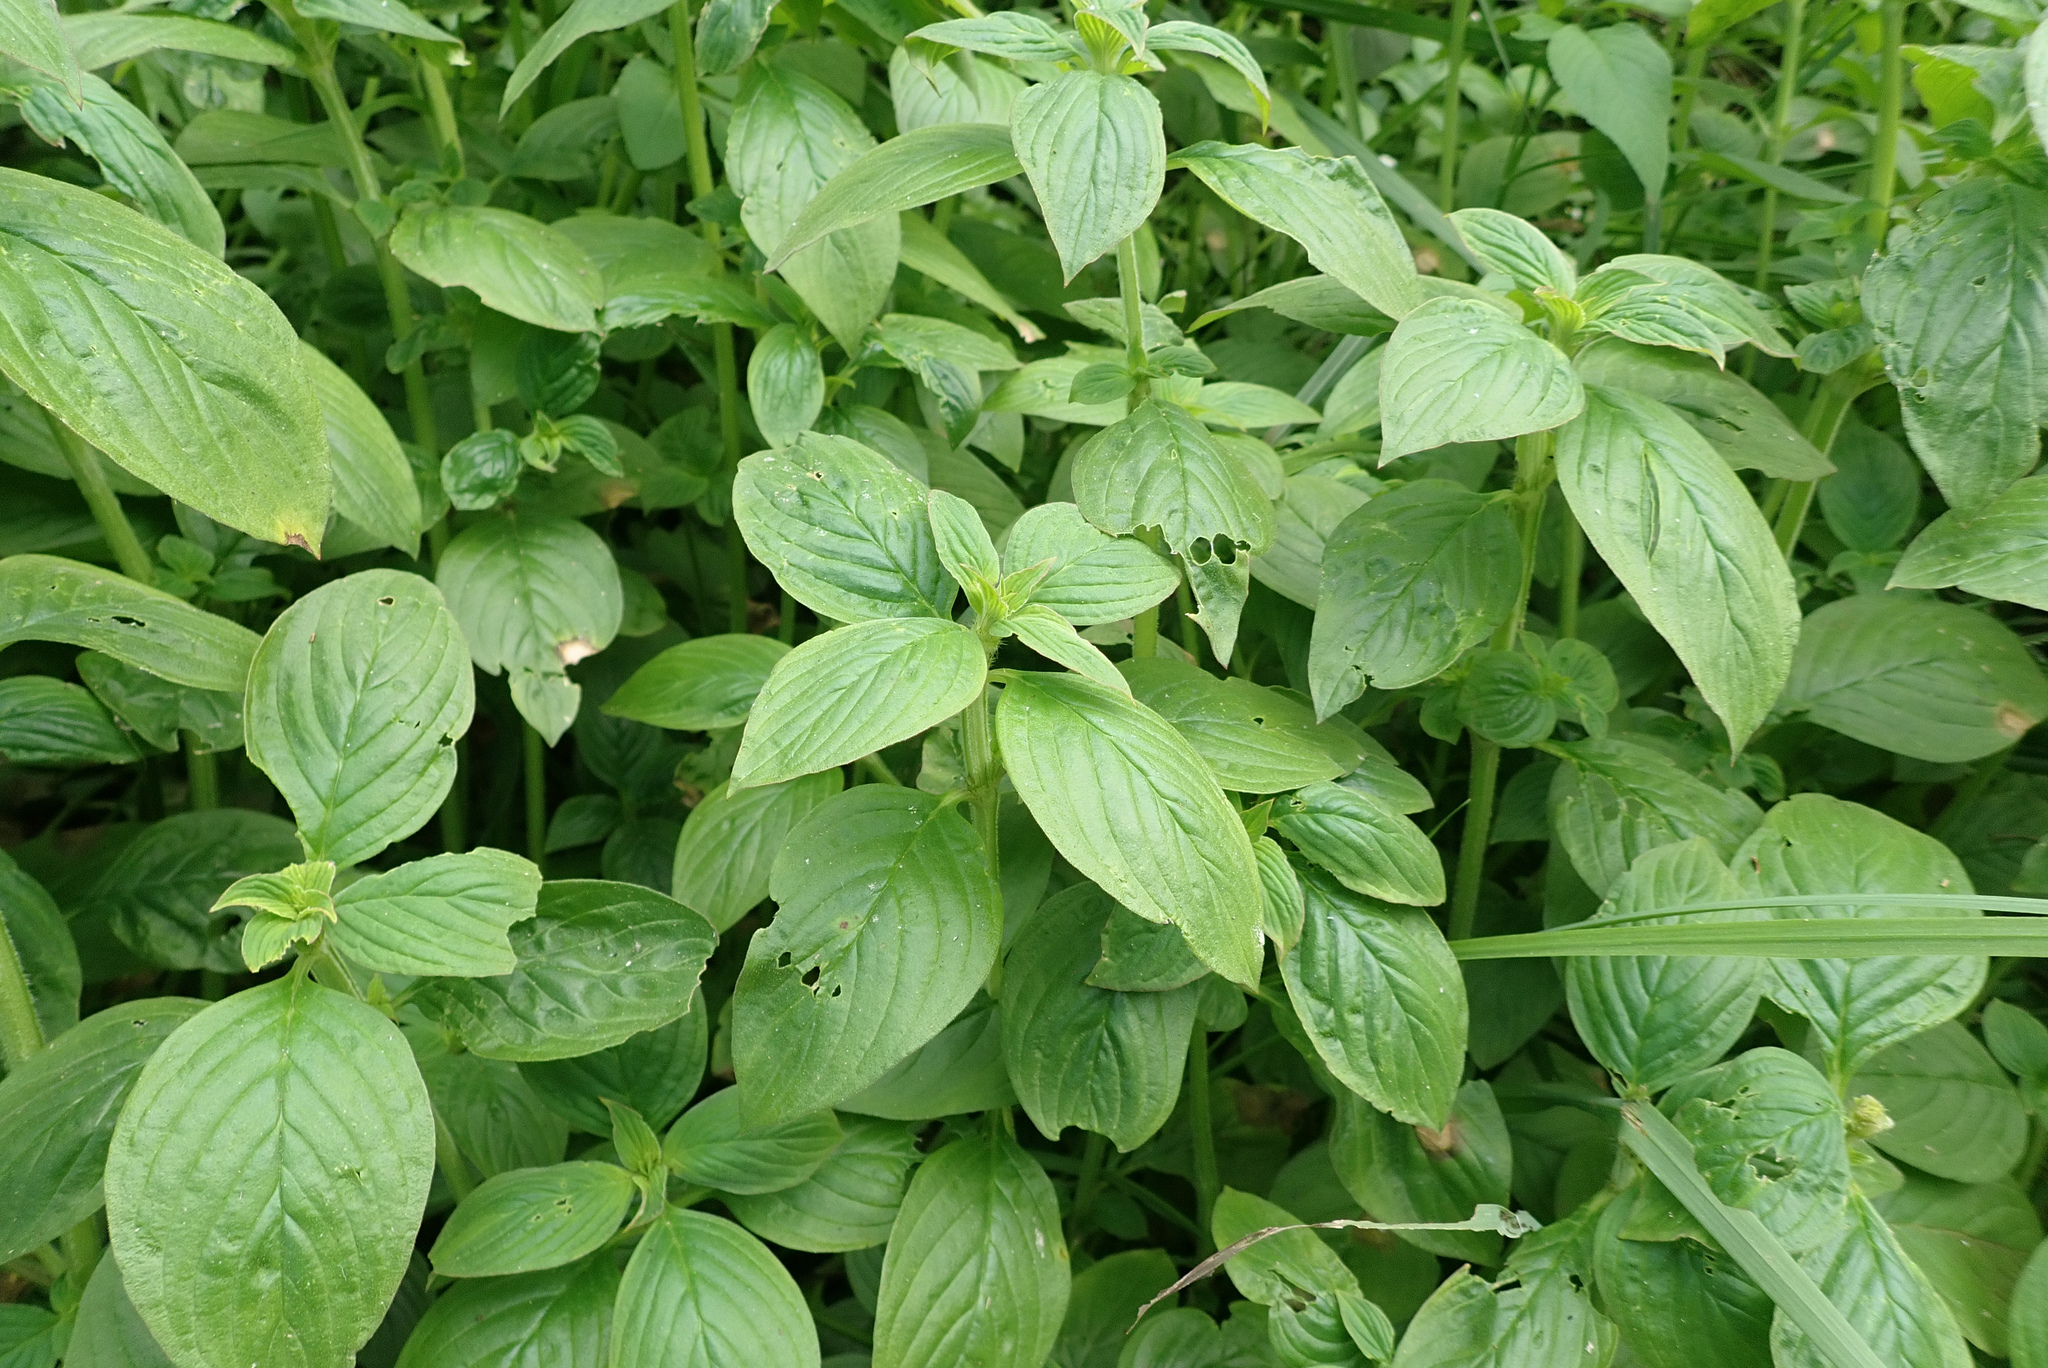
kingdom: Plantae
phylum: Tracheophyta
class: Magnoliopsida
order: Gentianales
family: Rubiaceae
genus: Spermacoce
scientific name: Spermacoce latifolia
